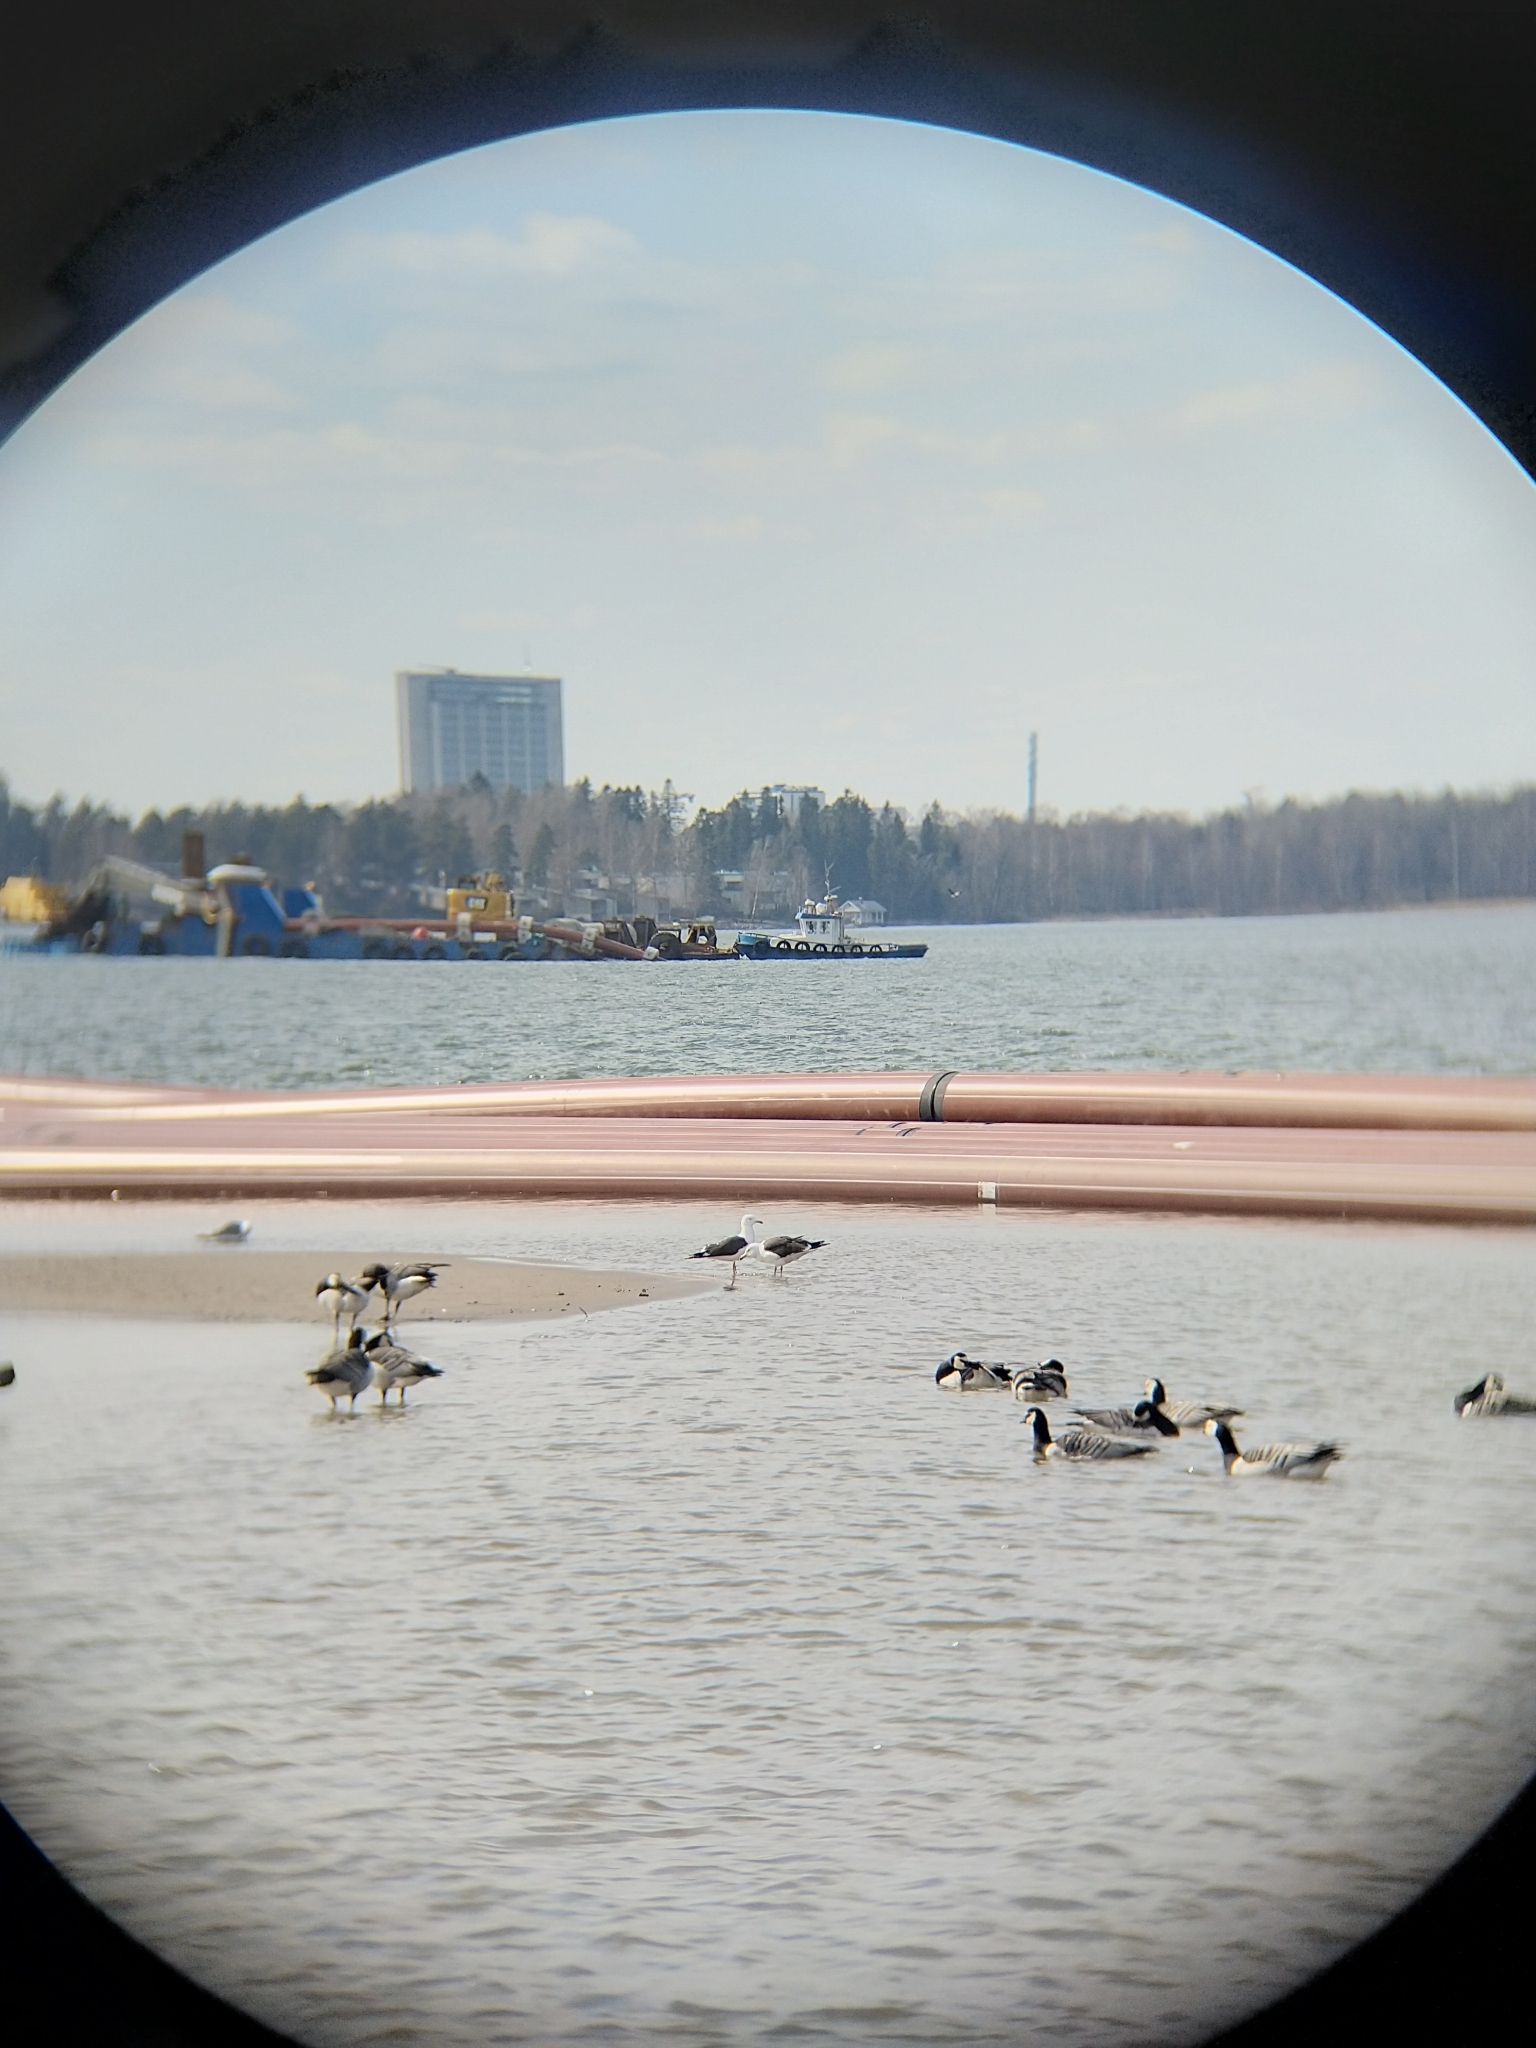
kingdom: Animalia
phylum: Chordata
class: Aves
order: Charadriiformes
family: Laridae
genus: Larus
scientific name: Larus fuscus
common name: Lesser black-backed gull
